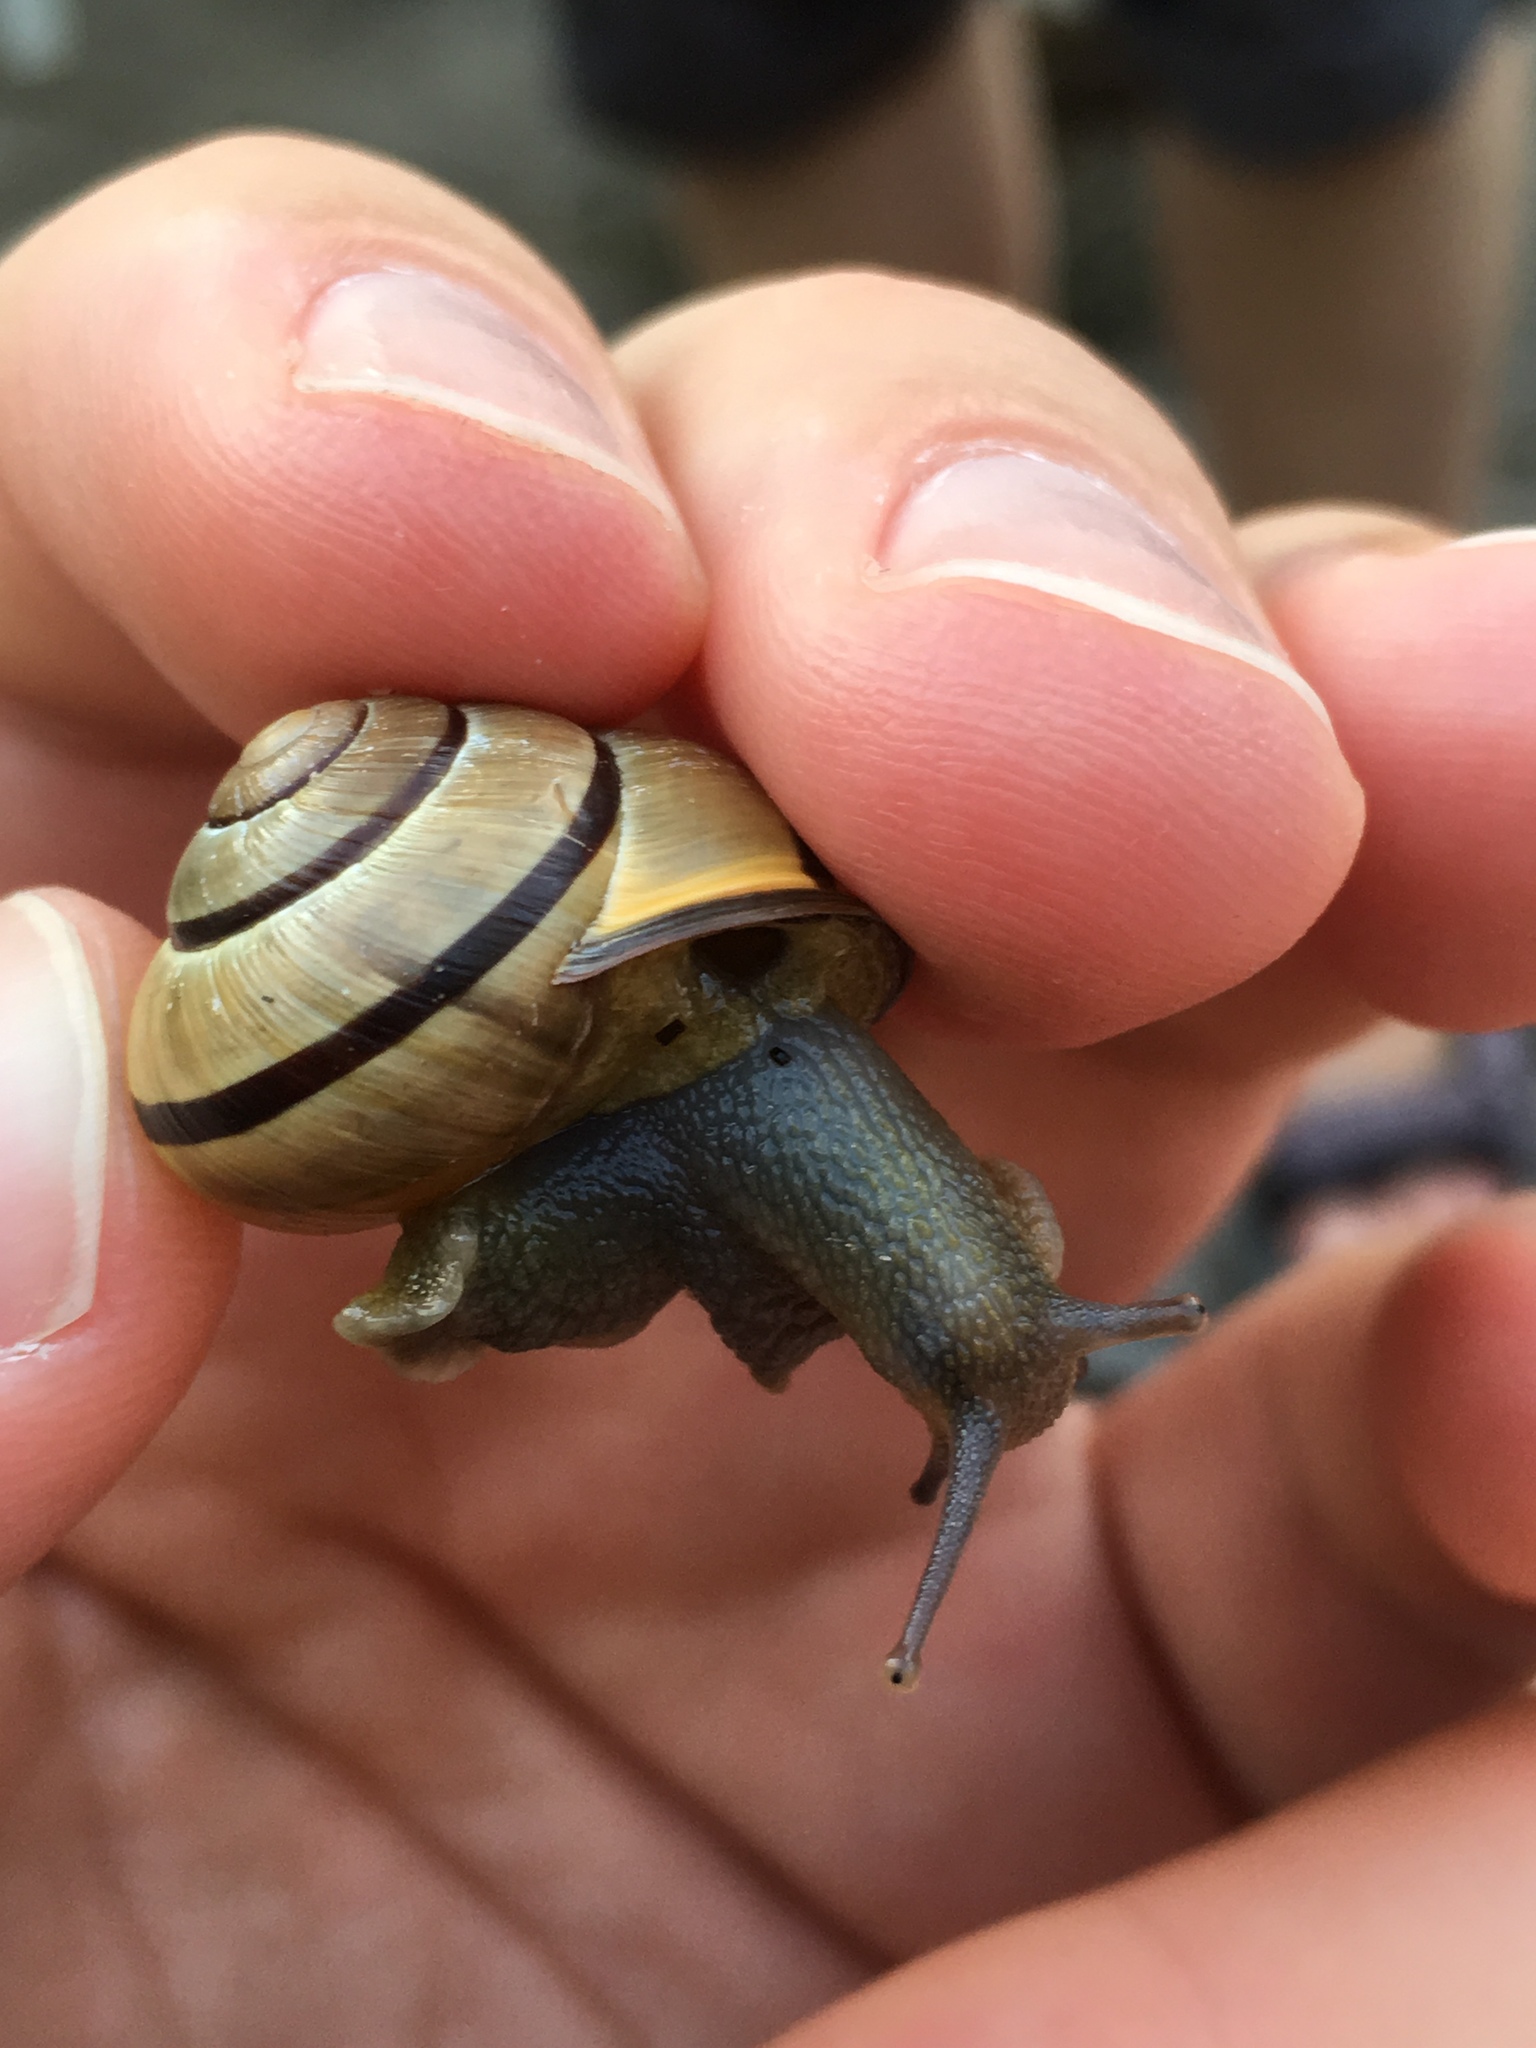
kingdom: Animalia
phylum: Mollusca
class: Gastropoda
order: Stylommatophora
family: Helicidae
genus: Cepaea
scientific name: Cepaea nemoralis
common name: Grovesnail
